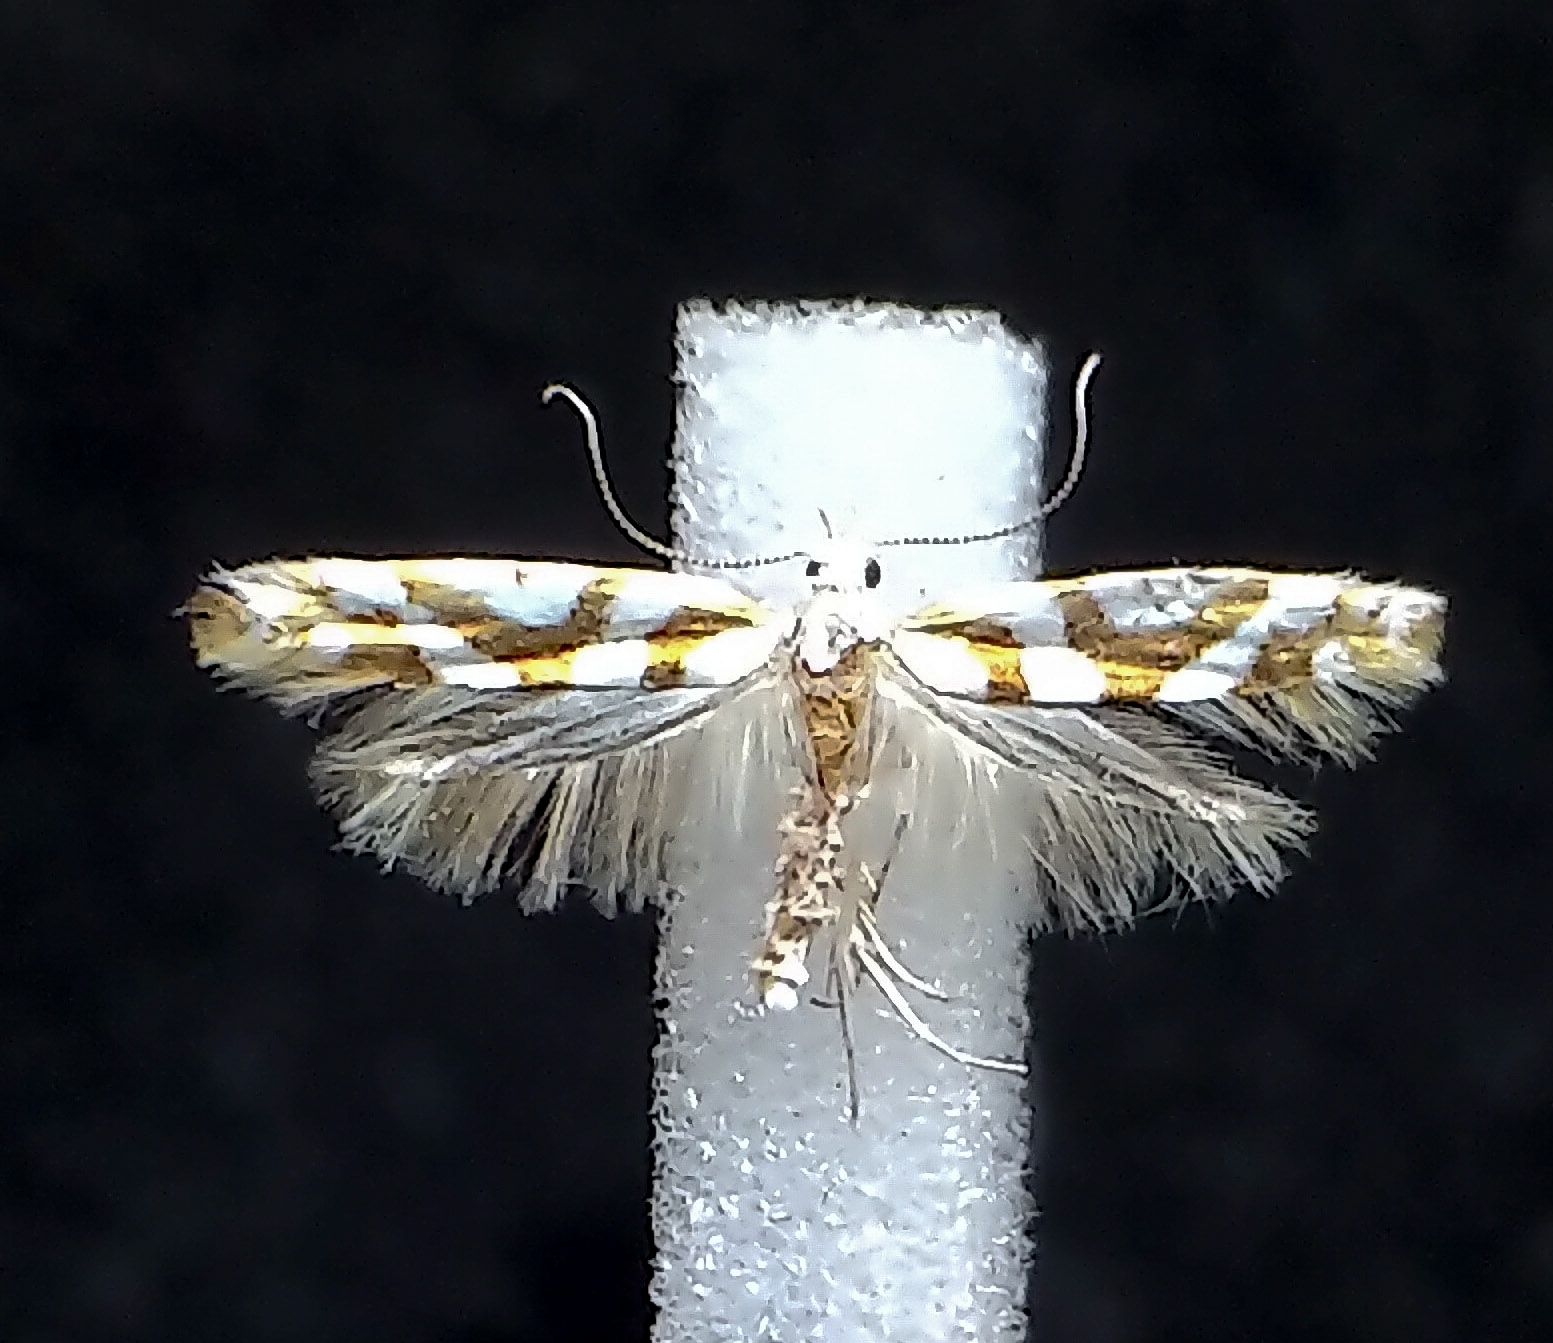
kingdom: Animalia
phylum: Arthropoda
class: Insecta
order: Lepidoptera
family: Argyresthiidae
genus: Argyresthia
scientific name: Argyresthia calliphanes
